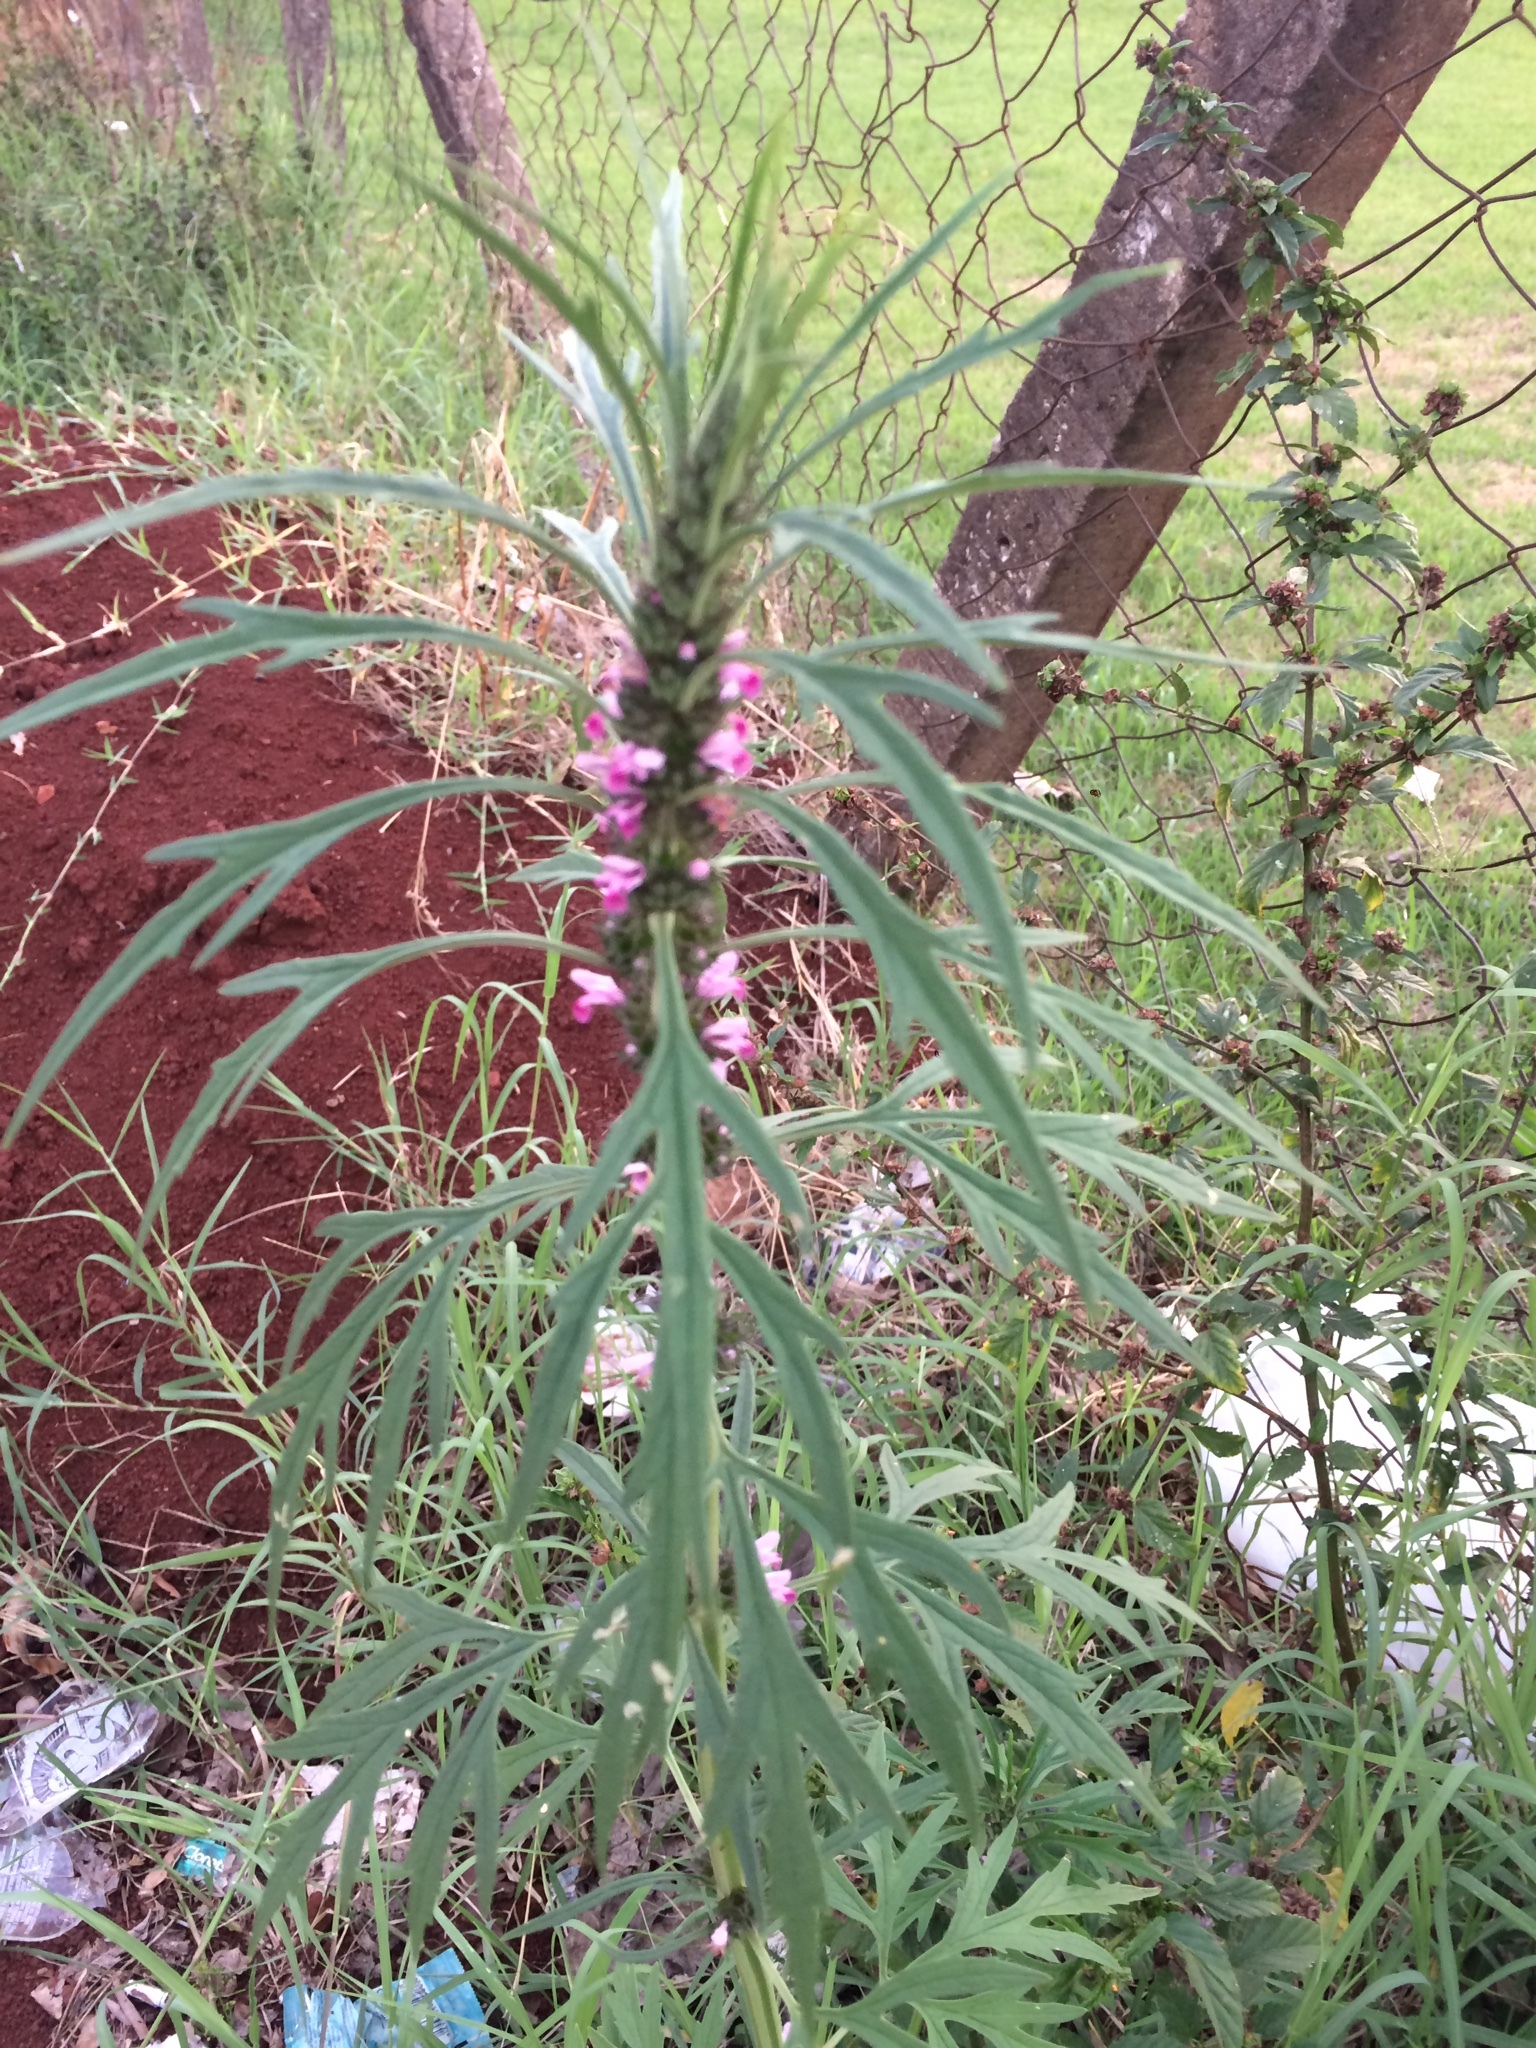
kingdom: Plantae
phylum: Tracheophyta
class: Magnoliopsida
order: Lamiales
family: Lamiaceae
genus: Leonurus
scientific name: Leonurus japonicus
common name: Honeyweed
